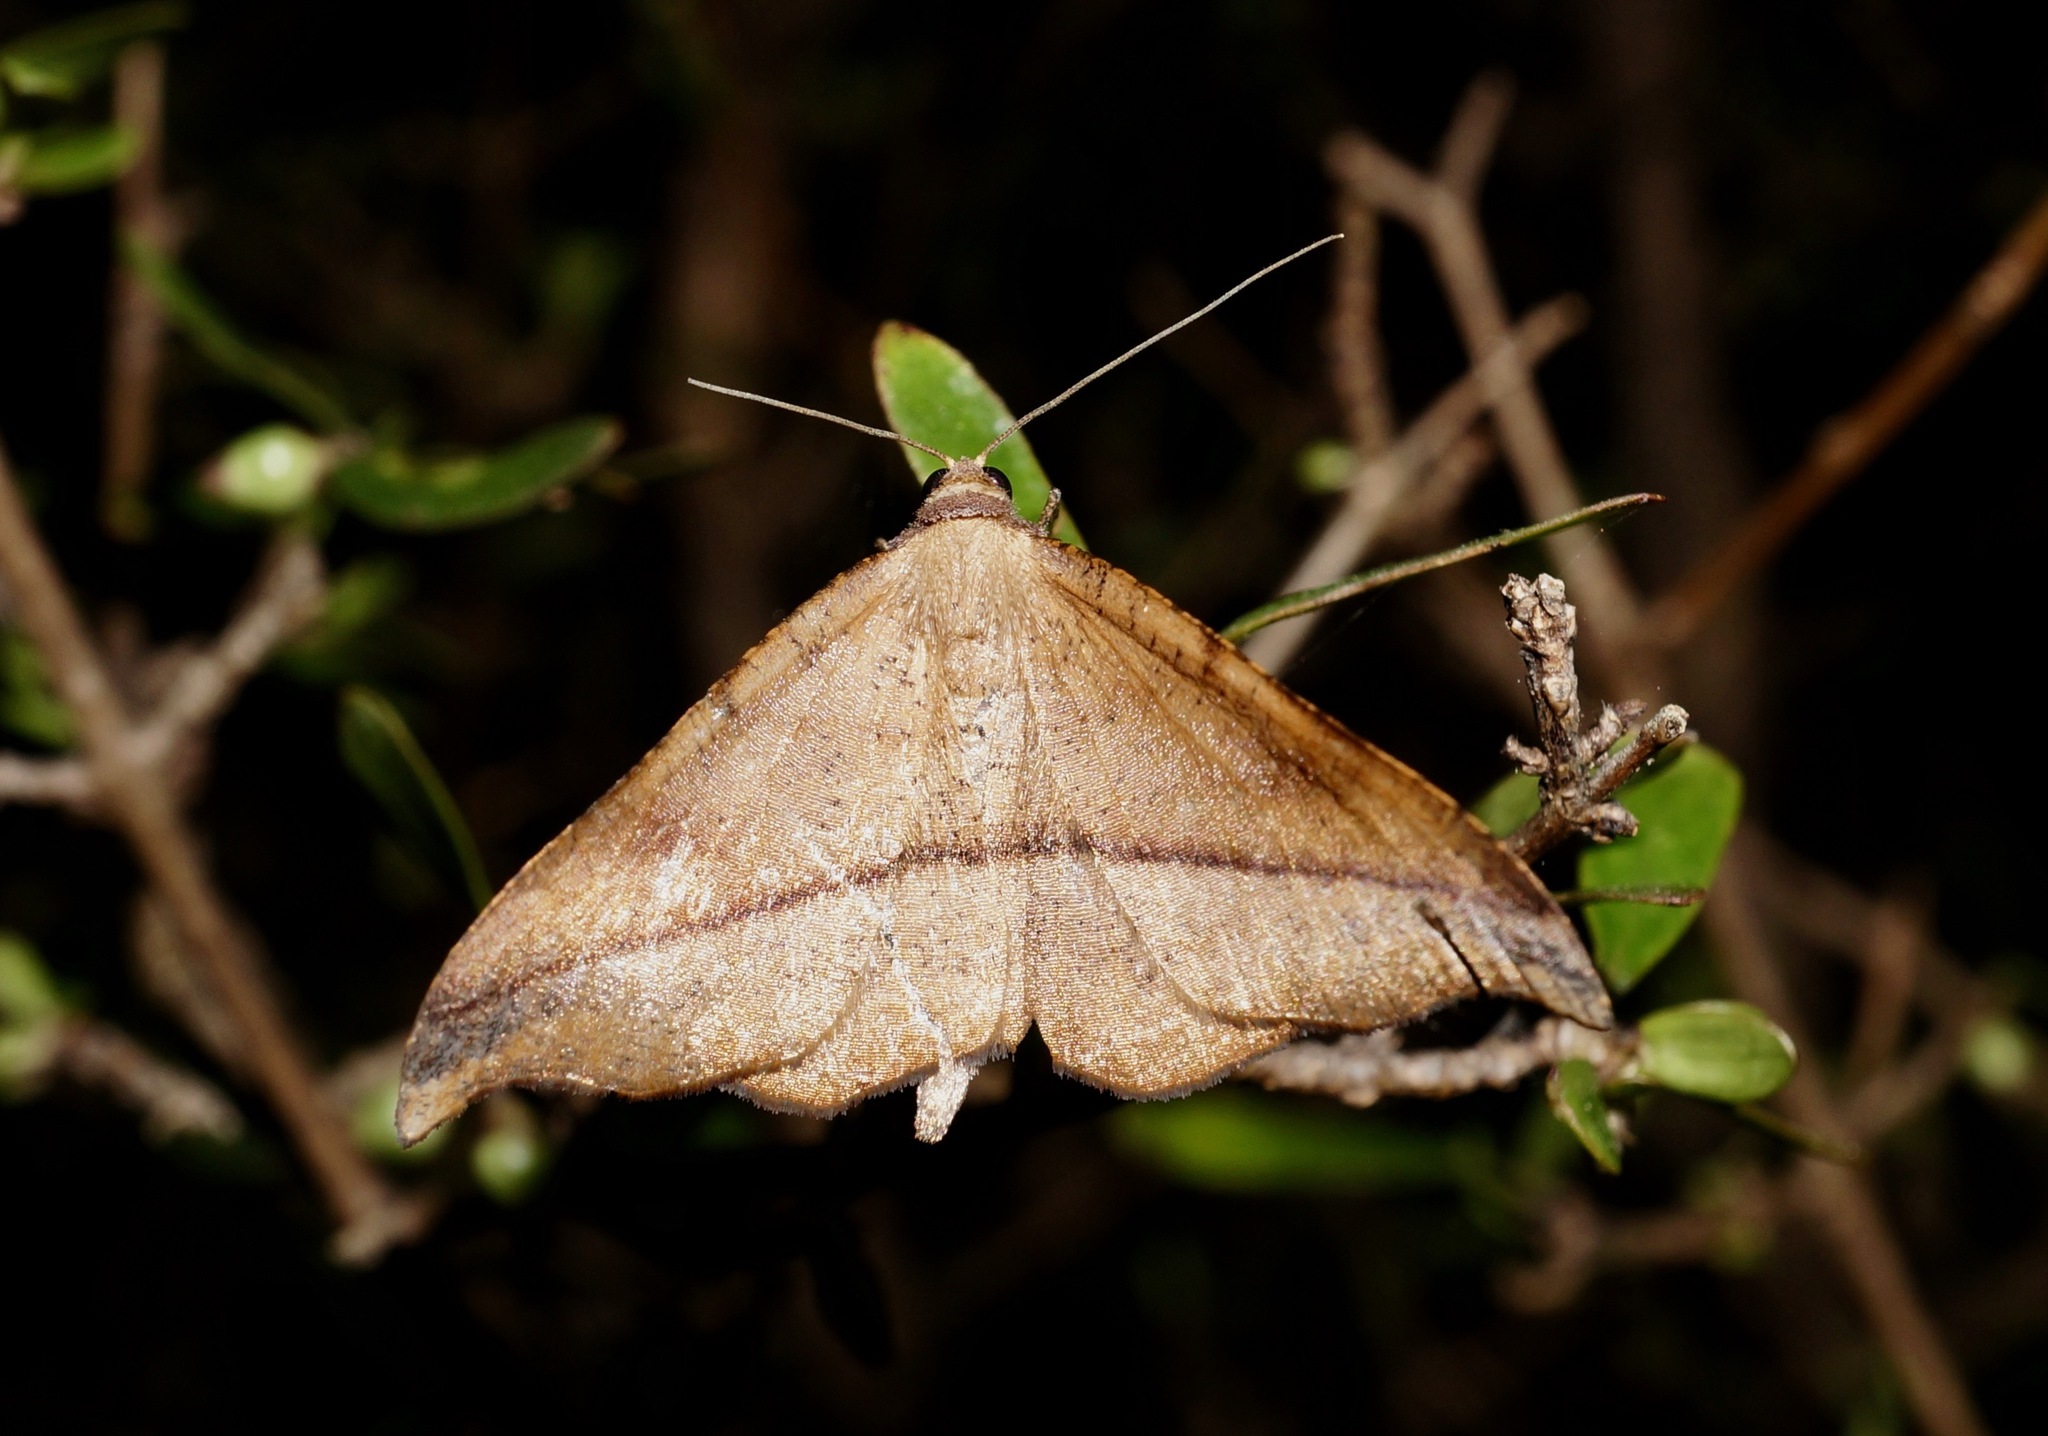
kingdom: Animalia
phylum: Arthropoda
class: Insecta
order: Lepidoptera
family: Geometridae
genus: Sarisa
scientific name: Sarisa muriferata
